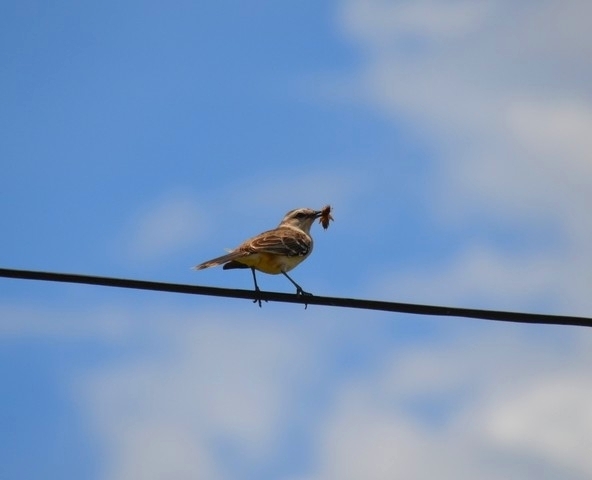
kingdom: Animalia
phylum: Chordata
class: Aves
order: Passeriformes
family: Mimidae
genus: Mimus
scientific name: Mimus saturninus
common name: Chalk-browed mockingbird
